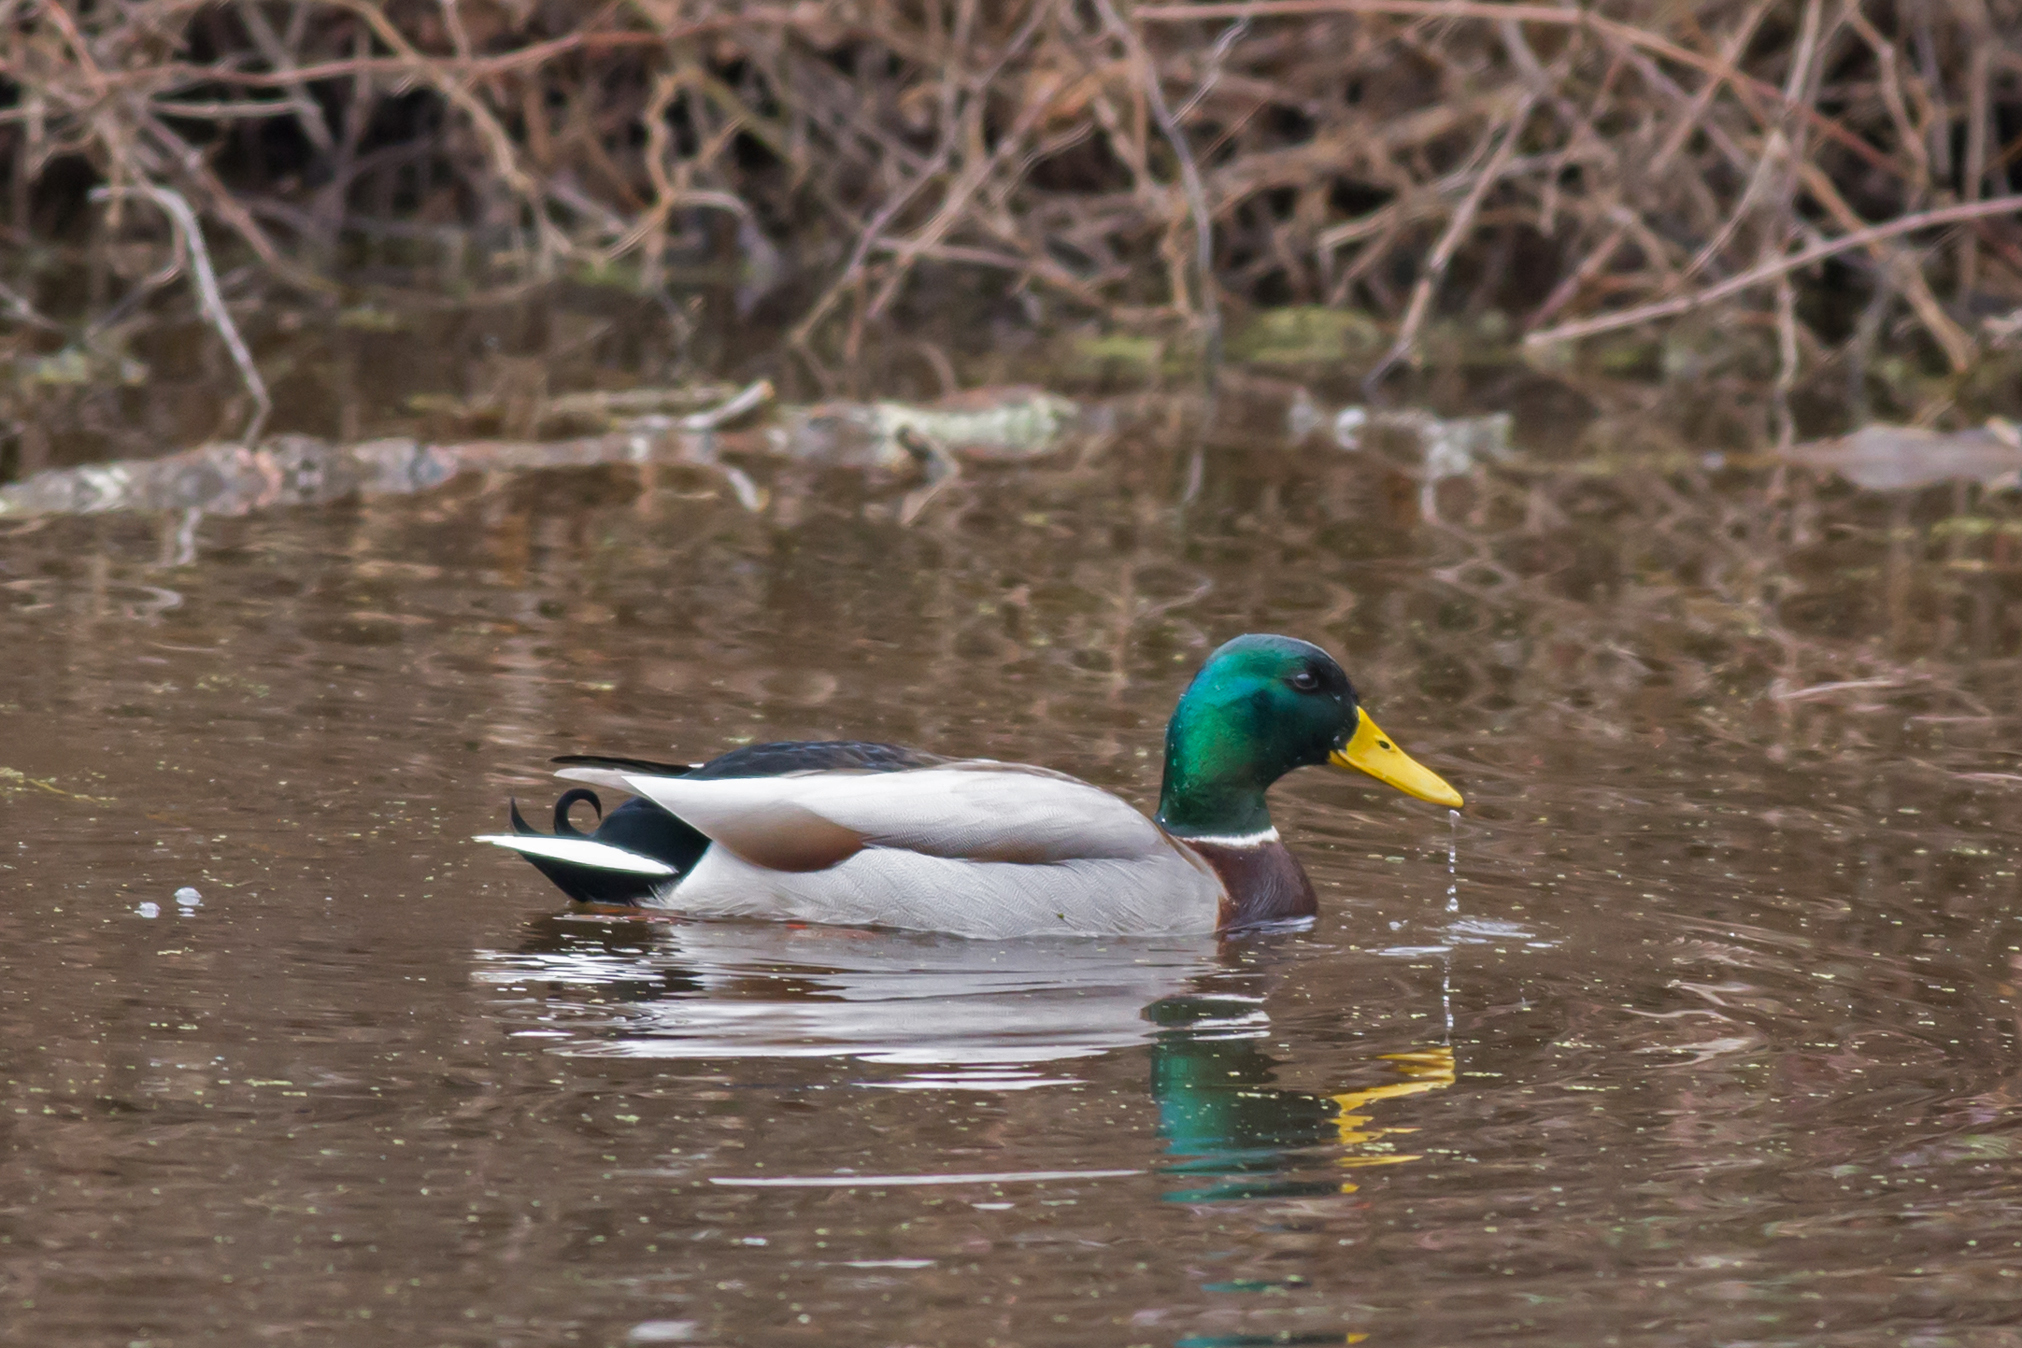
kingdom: Animalia
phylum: Chordata
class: Aves
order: Anseriformes
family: Anatidae
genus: Anas
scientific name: Anas platyrhynchos
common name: Mallard
